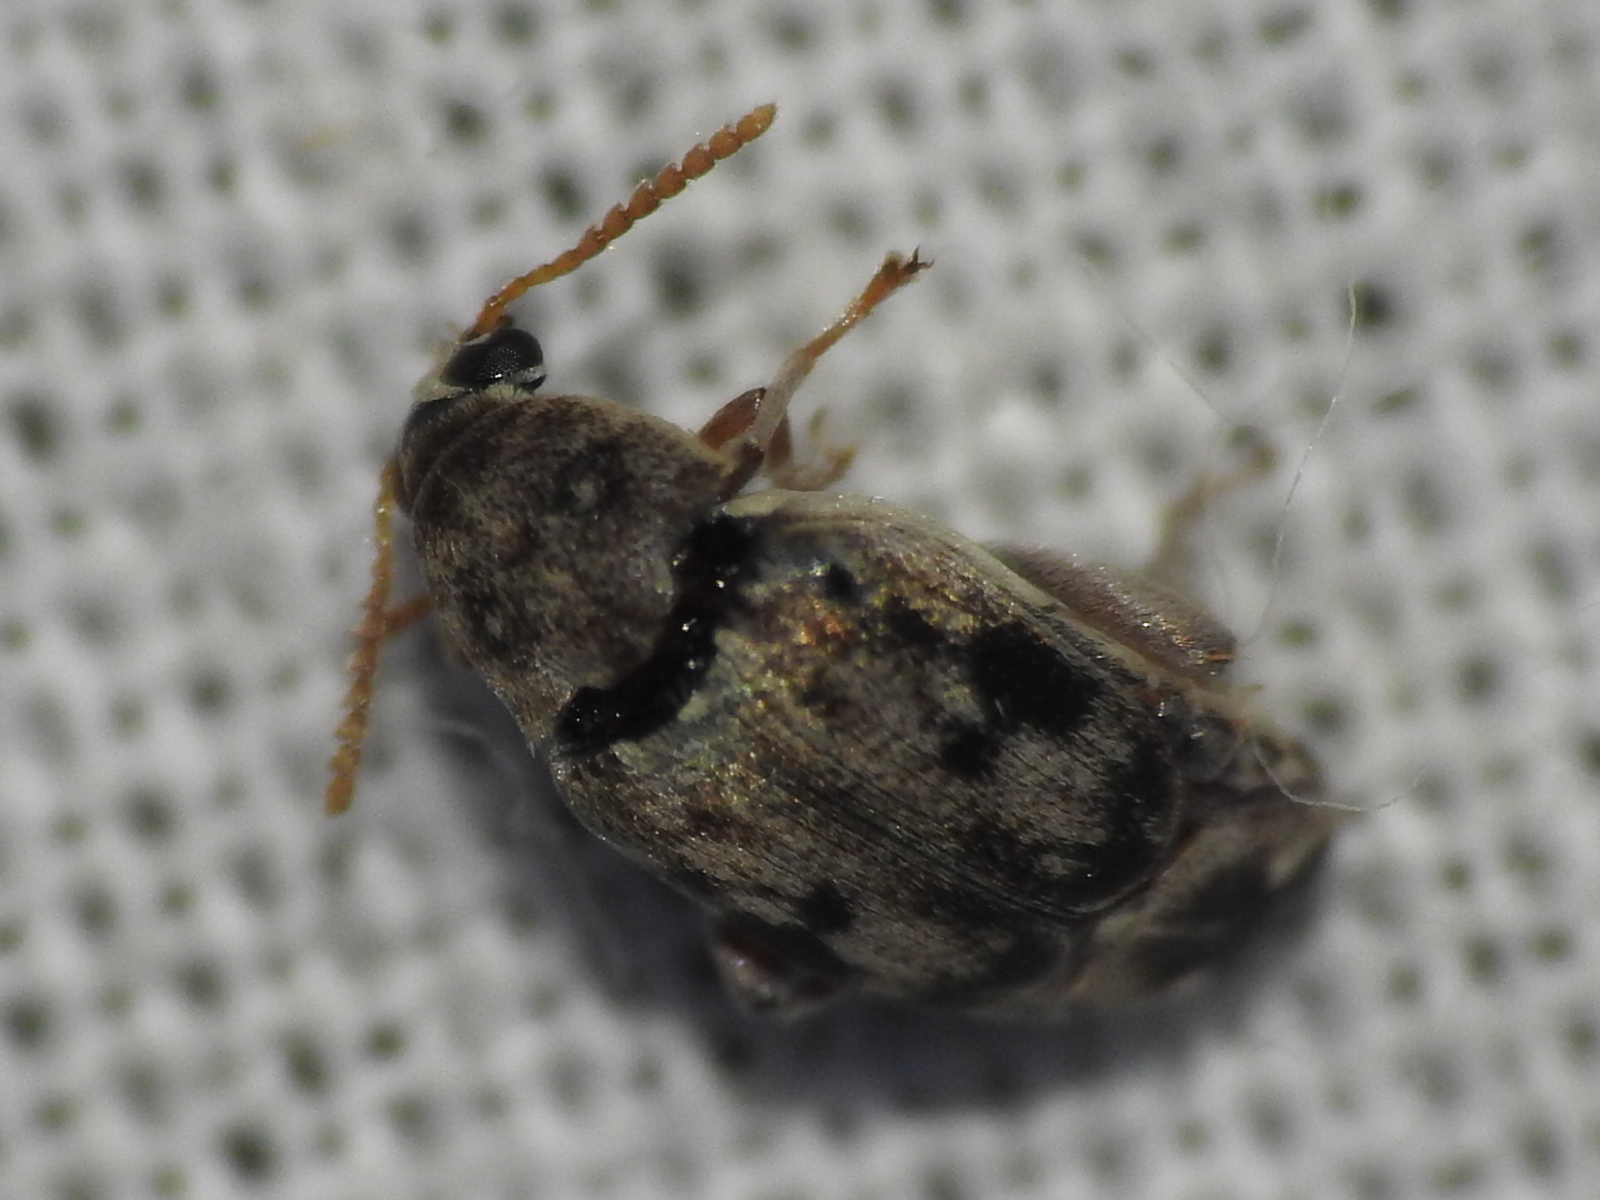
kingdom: Animalia
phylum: Arthropoda
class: Insecta
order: Coleoptera
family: Chrysomelidae
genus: Mimosestes
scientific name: Mimosestes protractus
